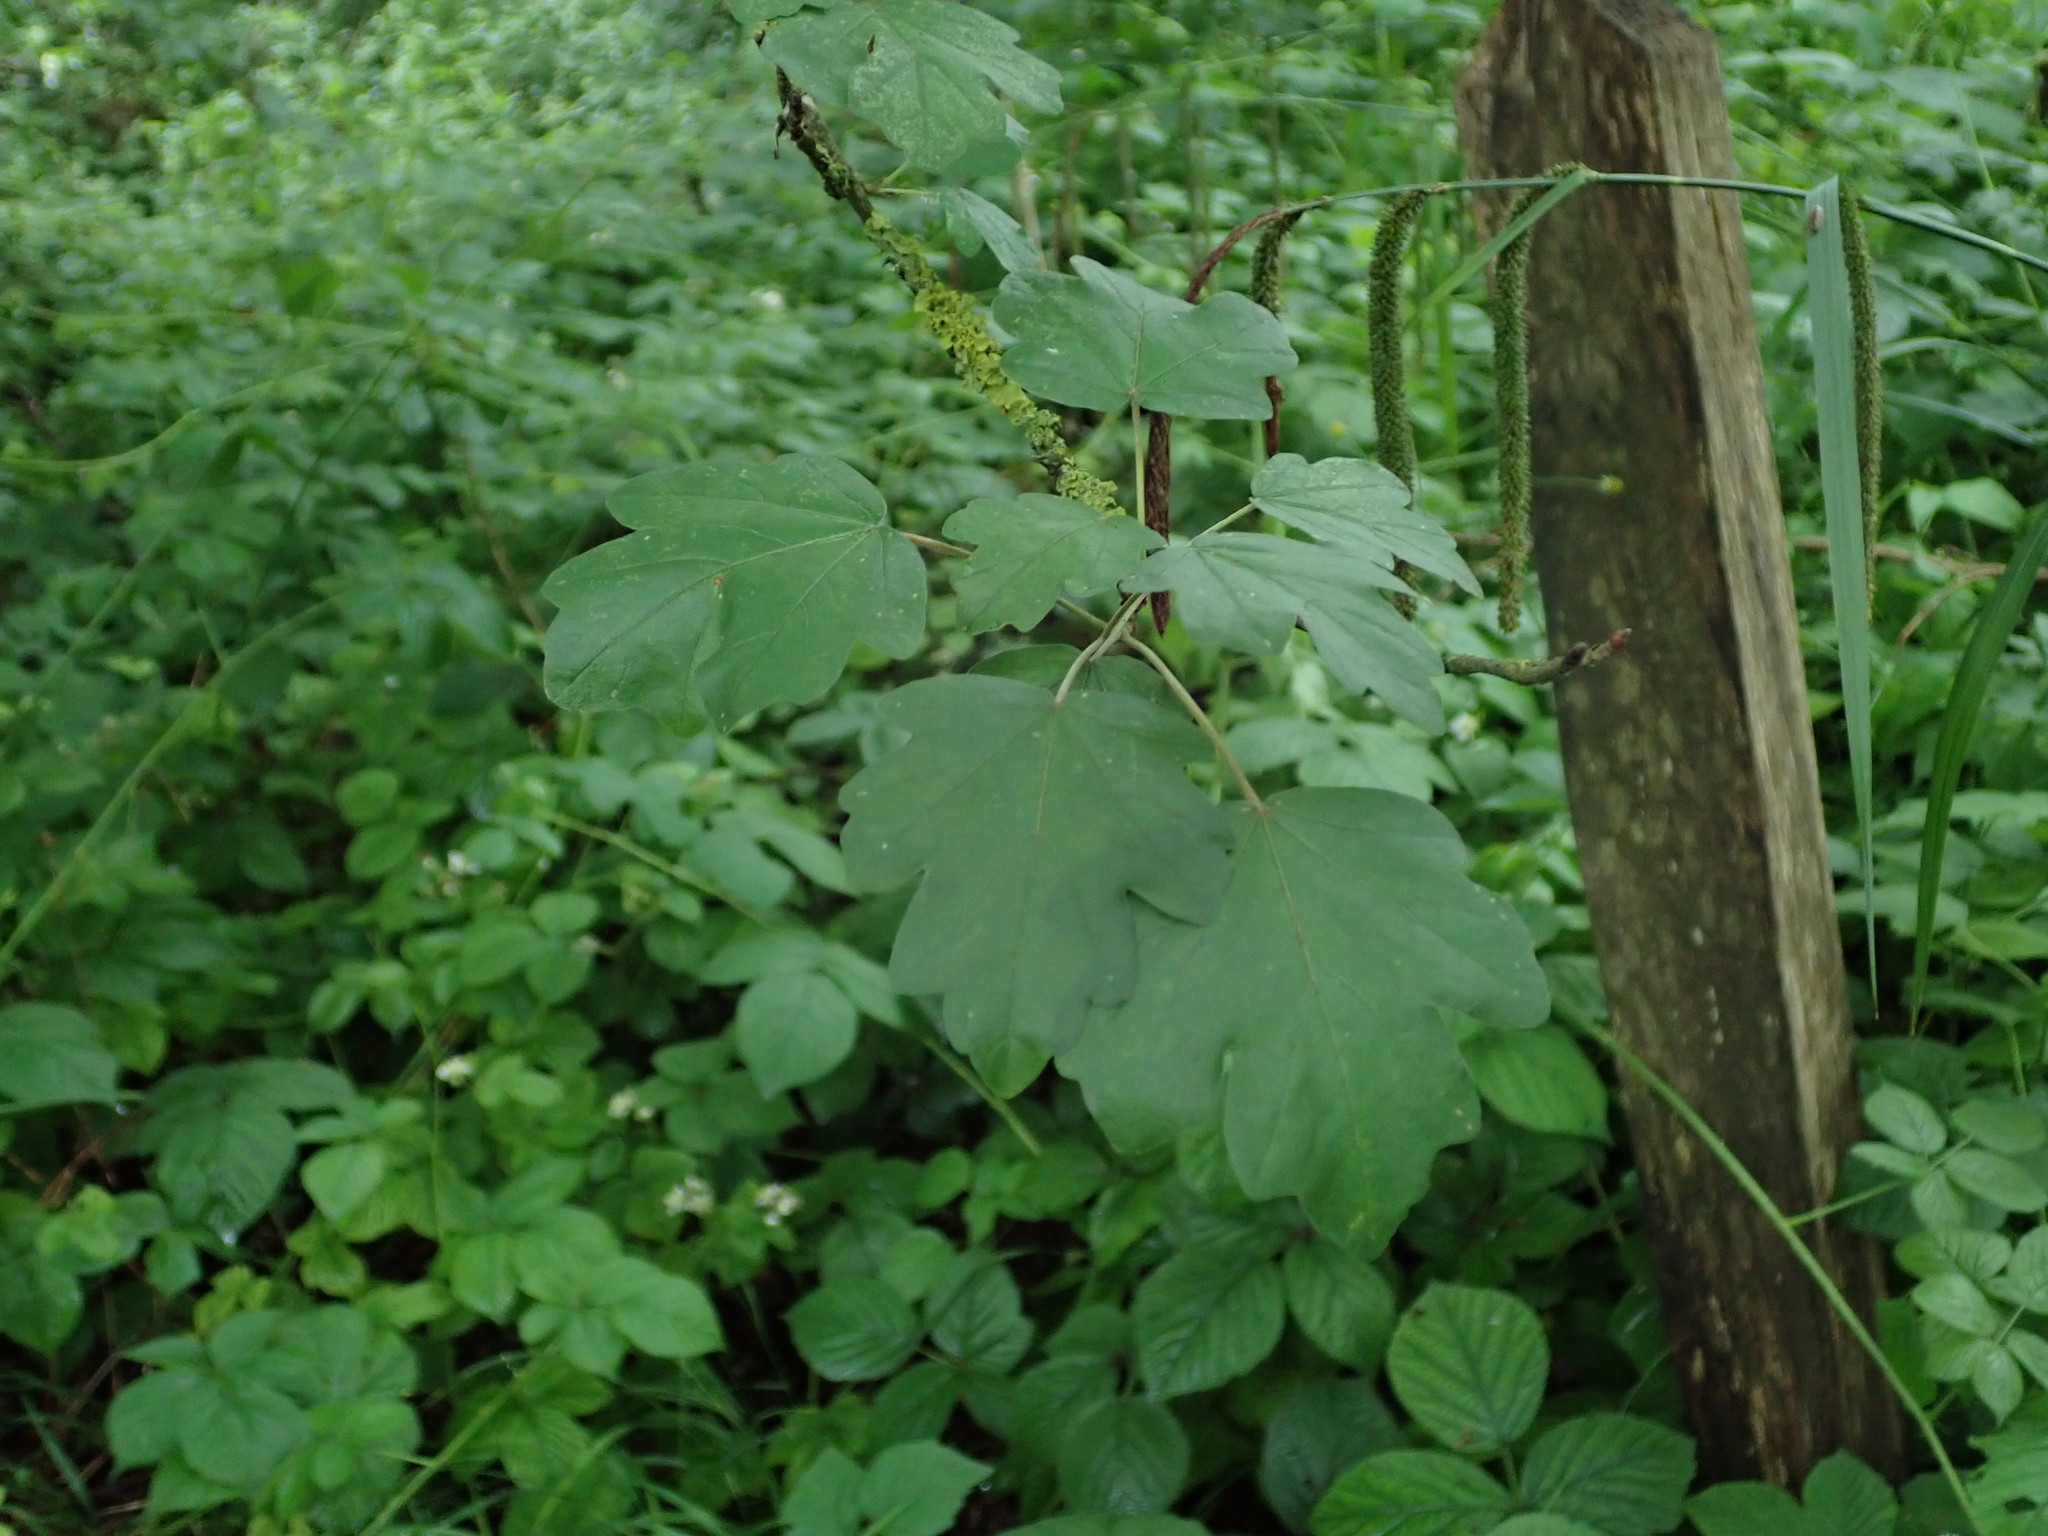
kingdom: Plantae
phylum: Tracheophyta
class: Magnoliopsida
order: Sapindales
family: Sapindaceae
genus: Acer
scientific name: Acer campestre
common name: Field maple
